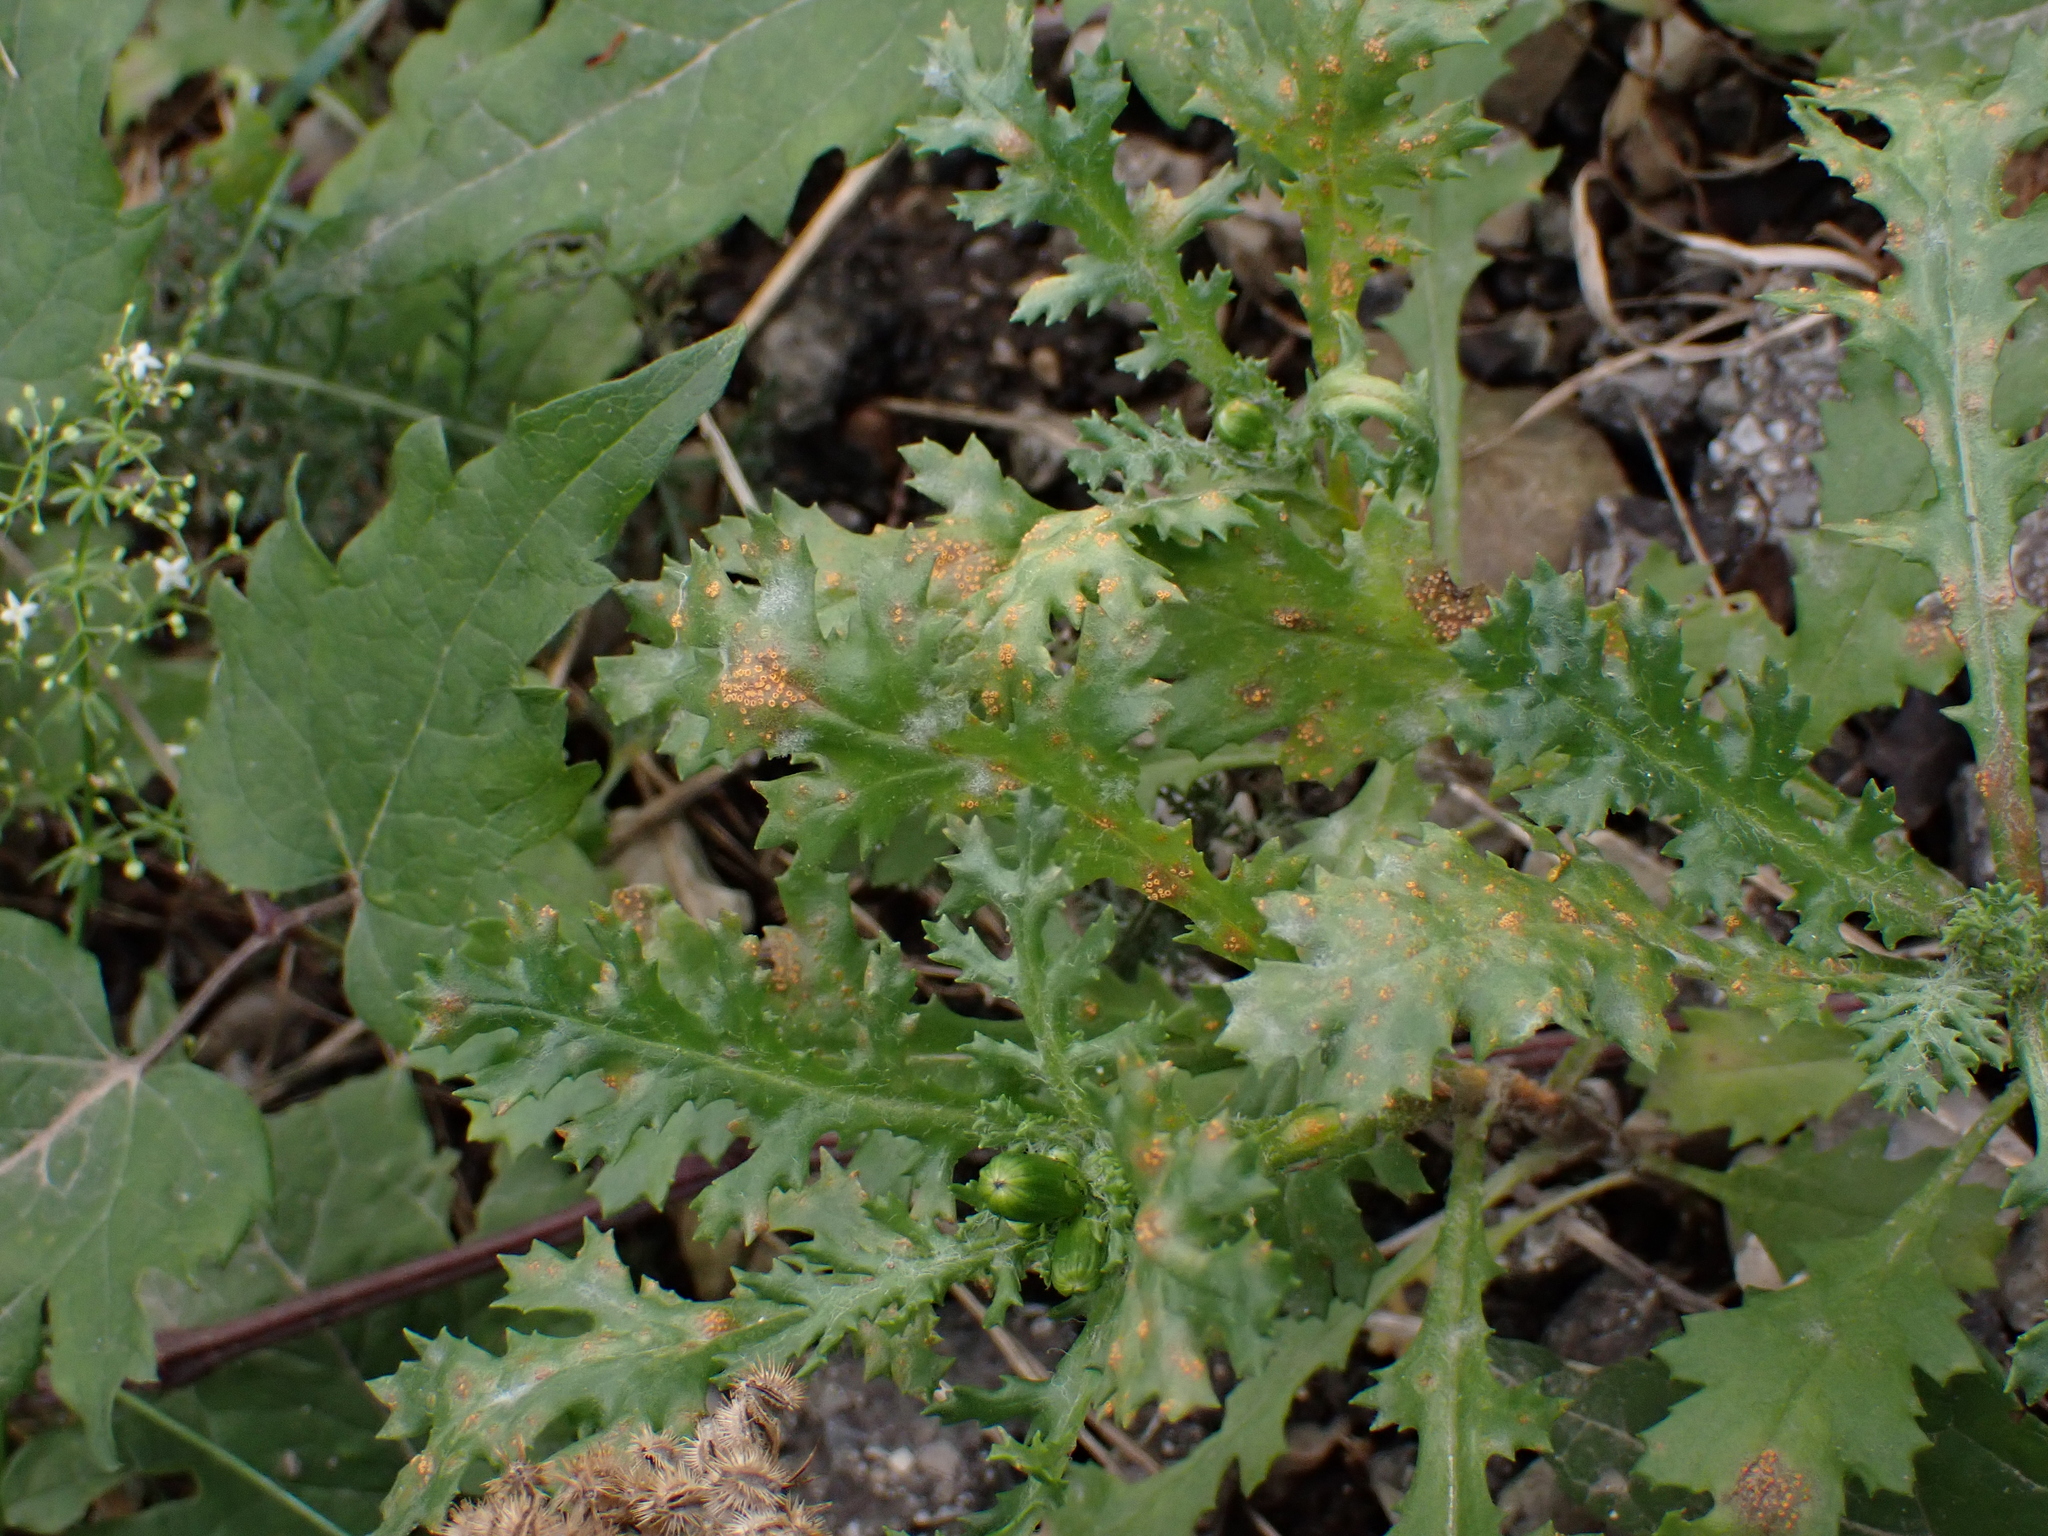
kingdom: Fungi
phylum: Basidiomycota
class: Pucciniomycetes
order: Pucciniales
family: Pucciniaceae
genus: Puccinia
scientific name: Puccinia lagenophorae
